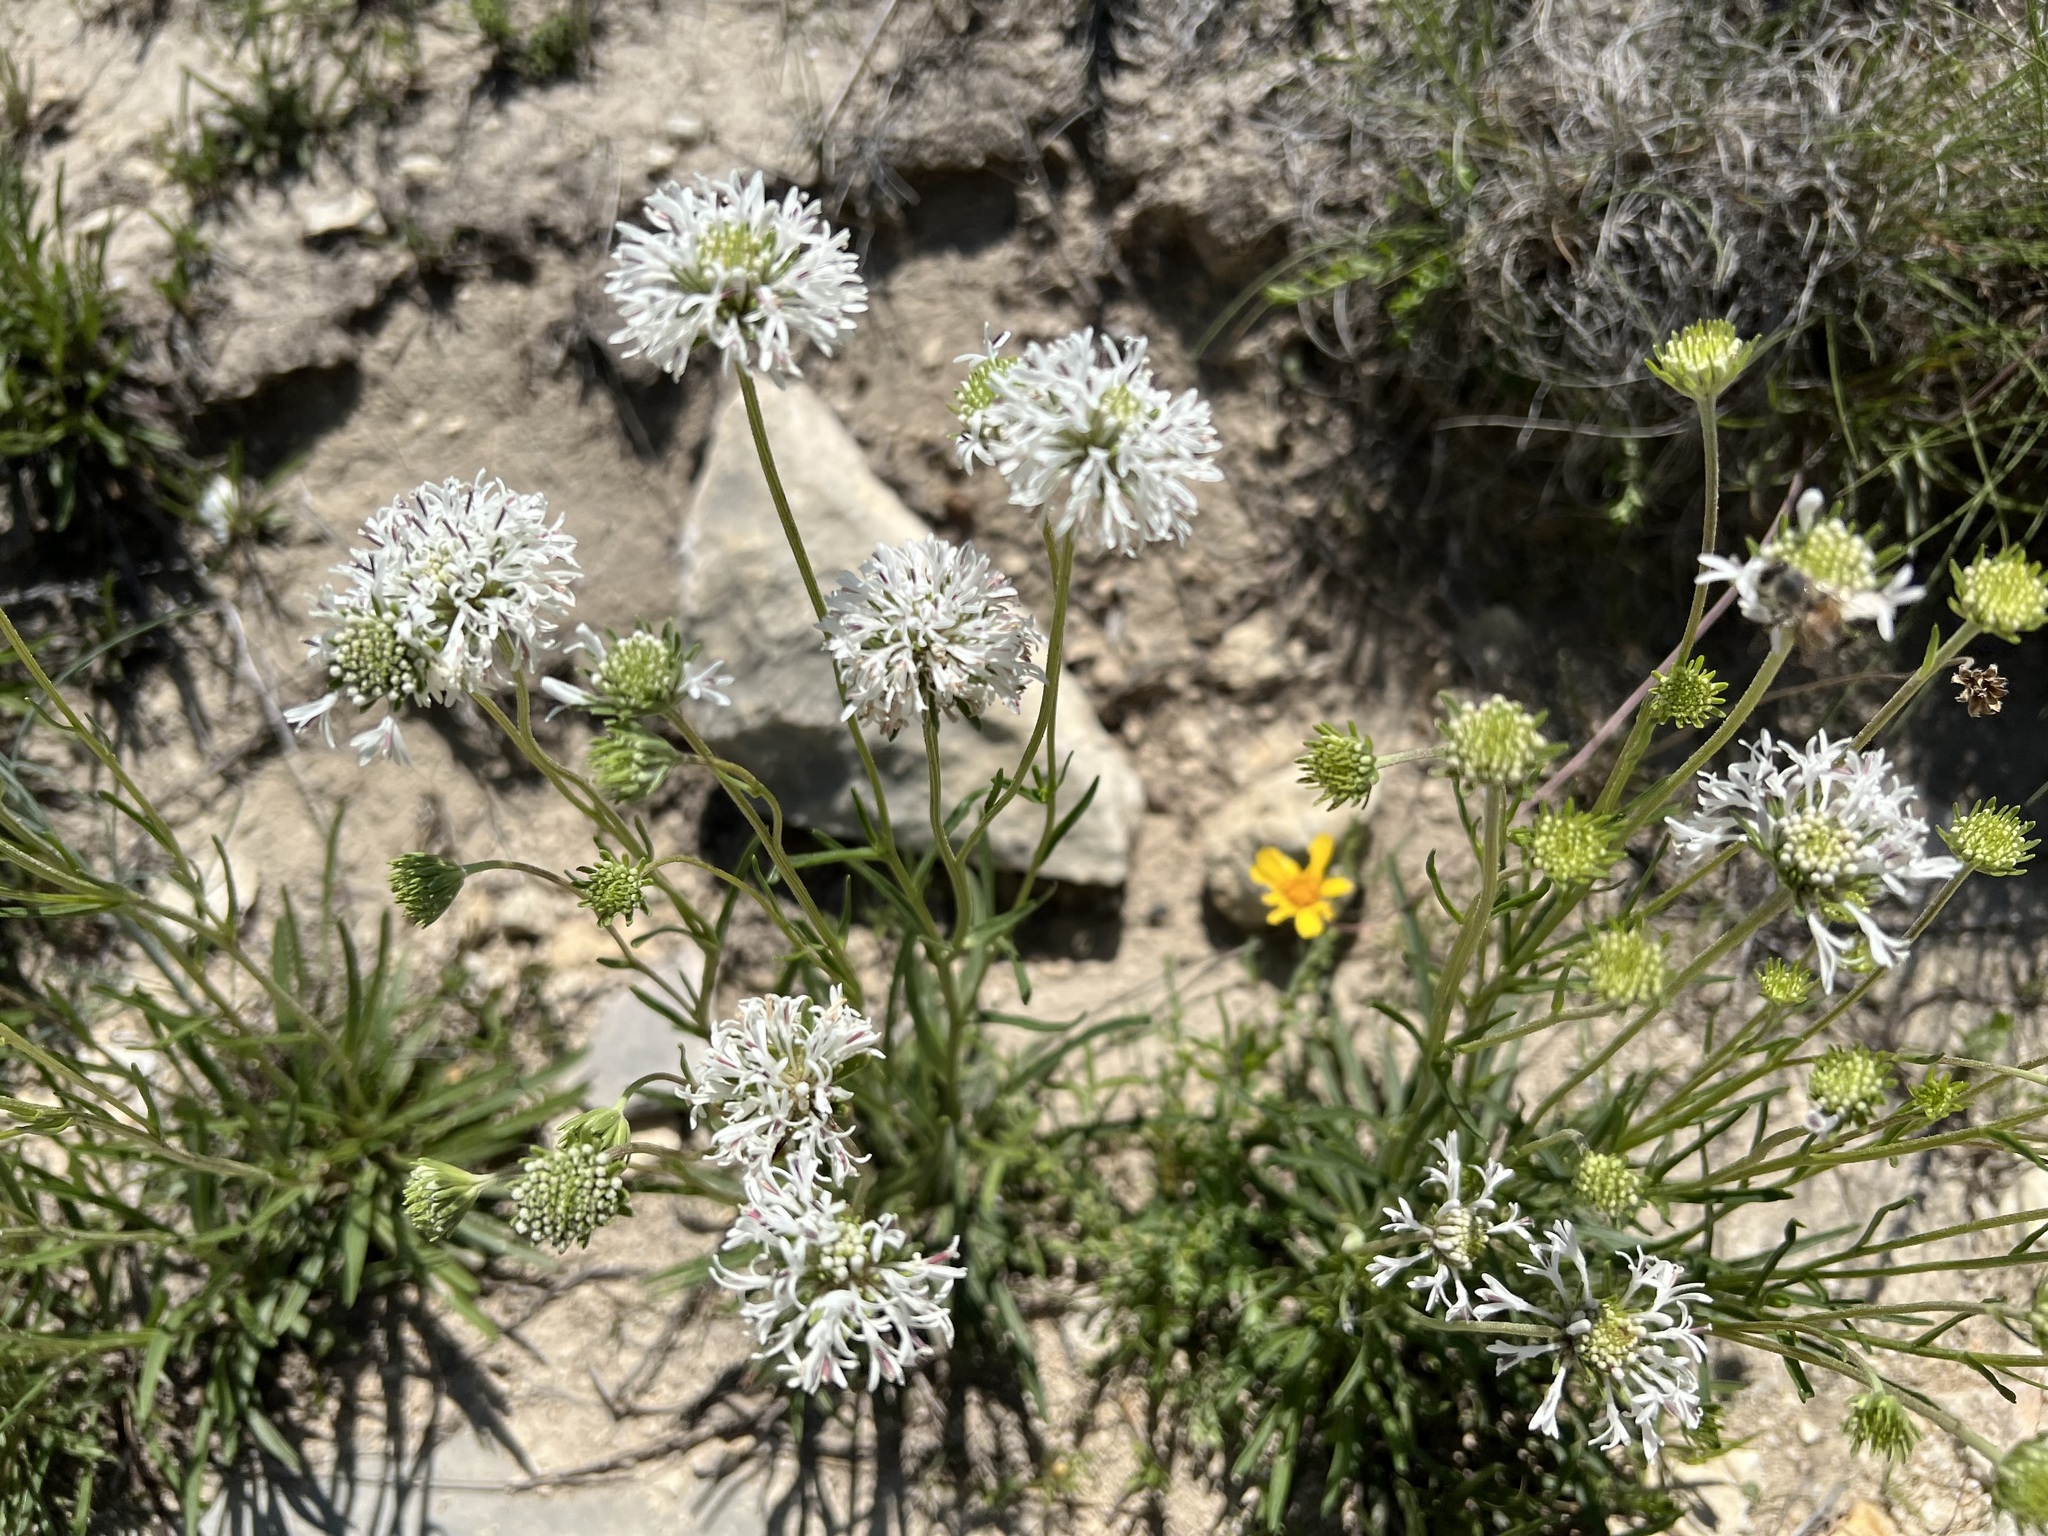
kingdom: Plantae
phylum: Tracheophyta
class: Magnoliopsida
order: Asterales
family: Asteraceae
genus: Marshallia
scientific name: Marshallia caespitosa
